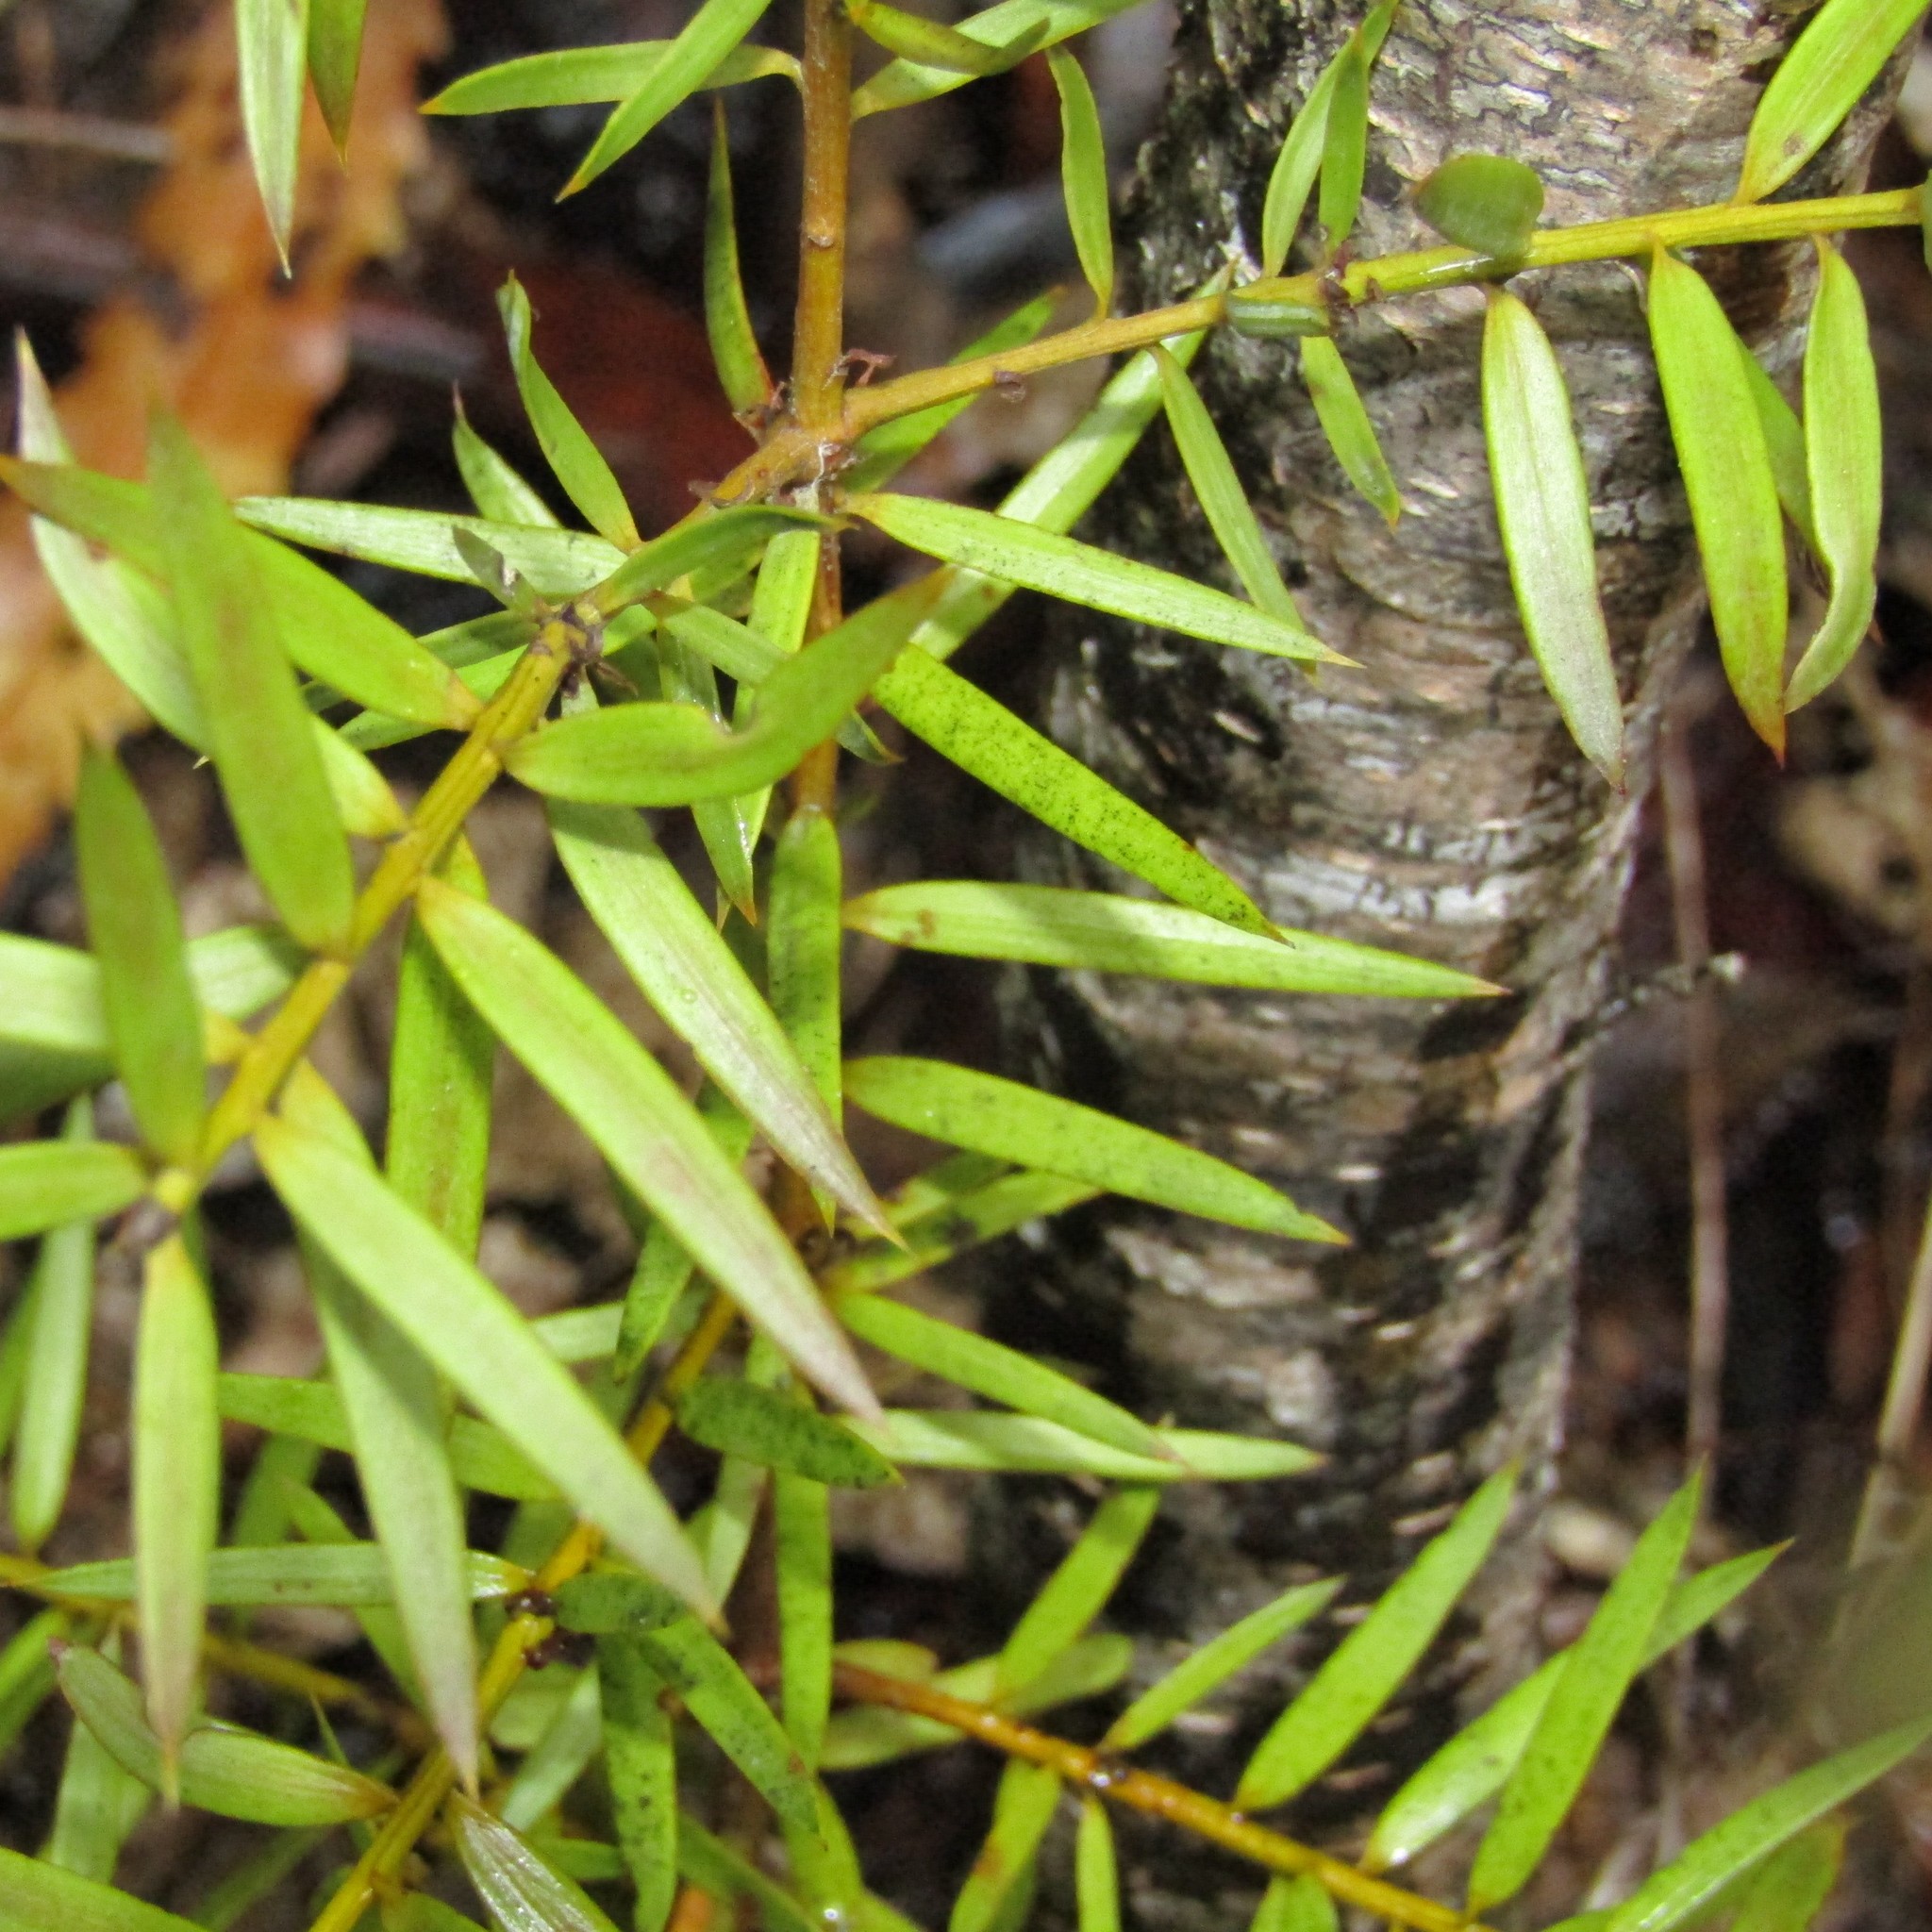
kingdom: Plantae
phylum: Tracheophyta
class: Pinopsida
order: Pinales
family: Podocarpaceae
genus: Podocarpus
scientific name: Podocarpus totara
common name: Totara
